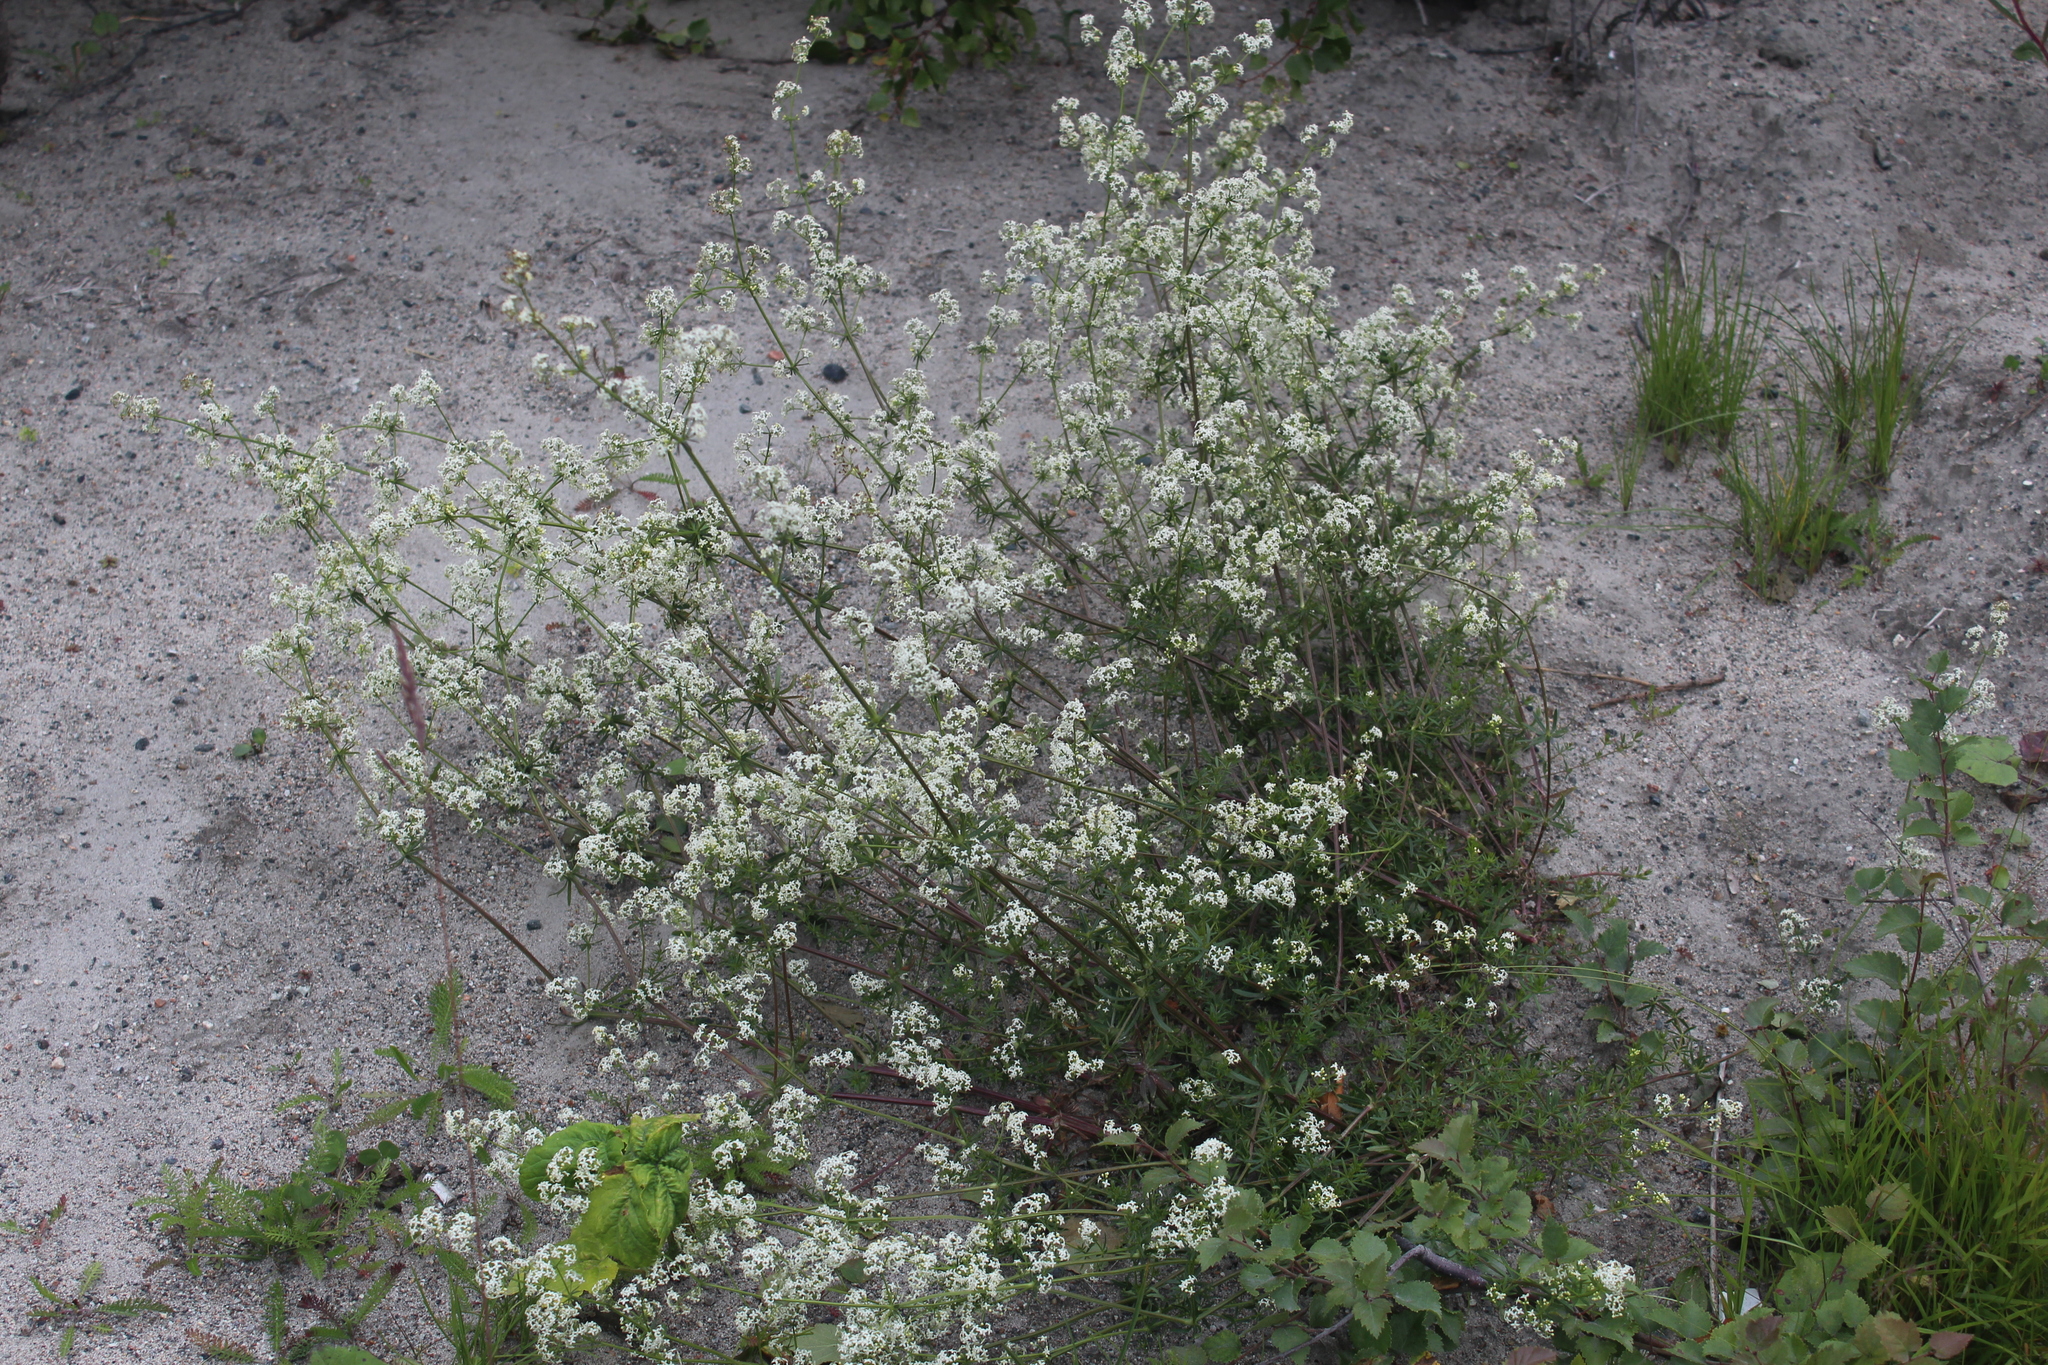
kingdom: Plantae
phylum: Tracheophyta
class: Magnoliopsida
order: Gentianales
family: Rubiaceae
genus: Galium
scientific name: Galium mollugo
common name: Hedge bedstraw
